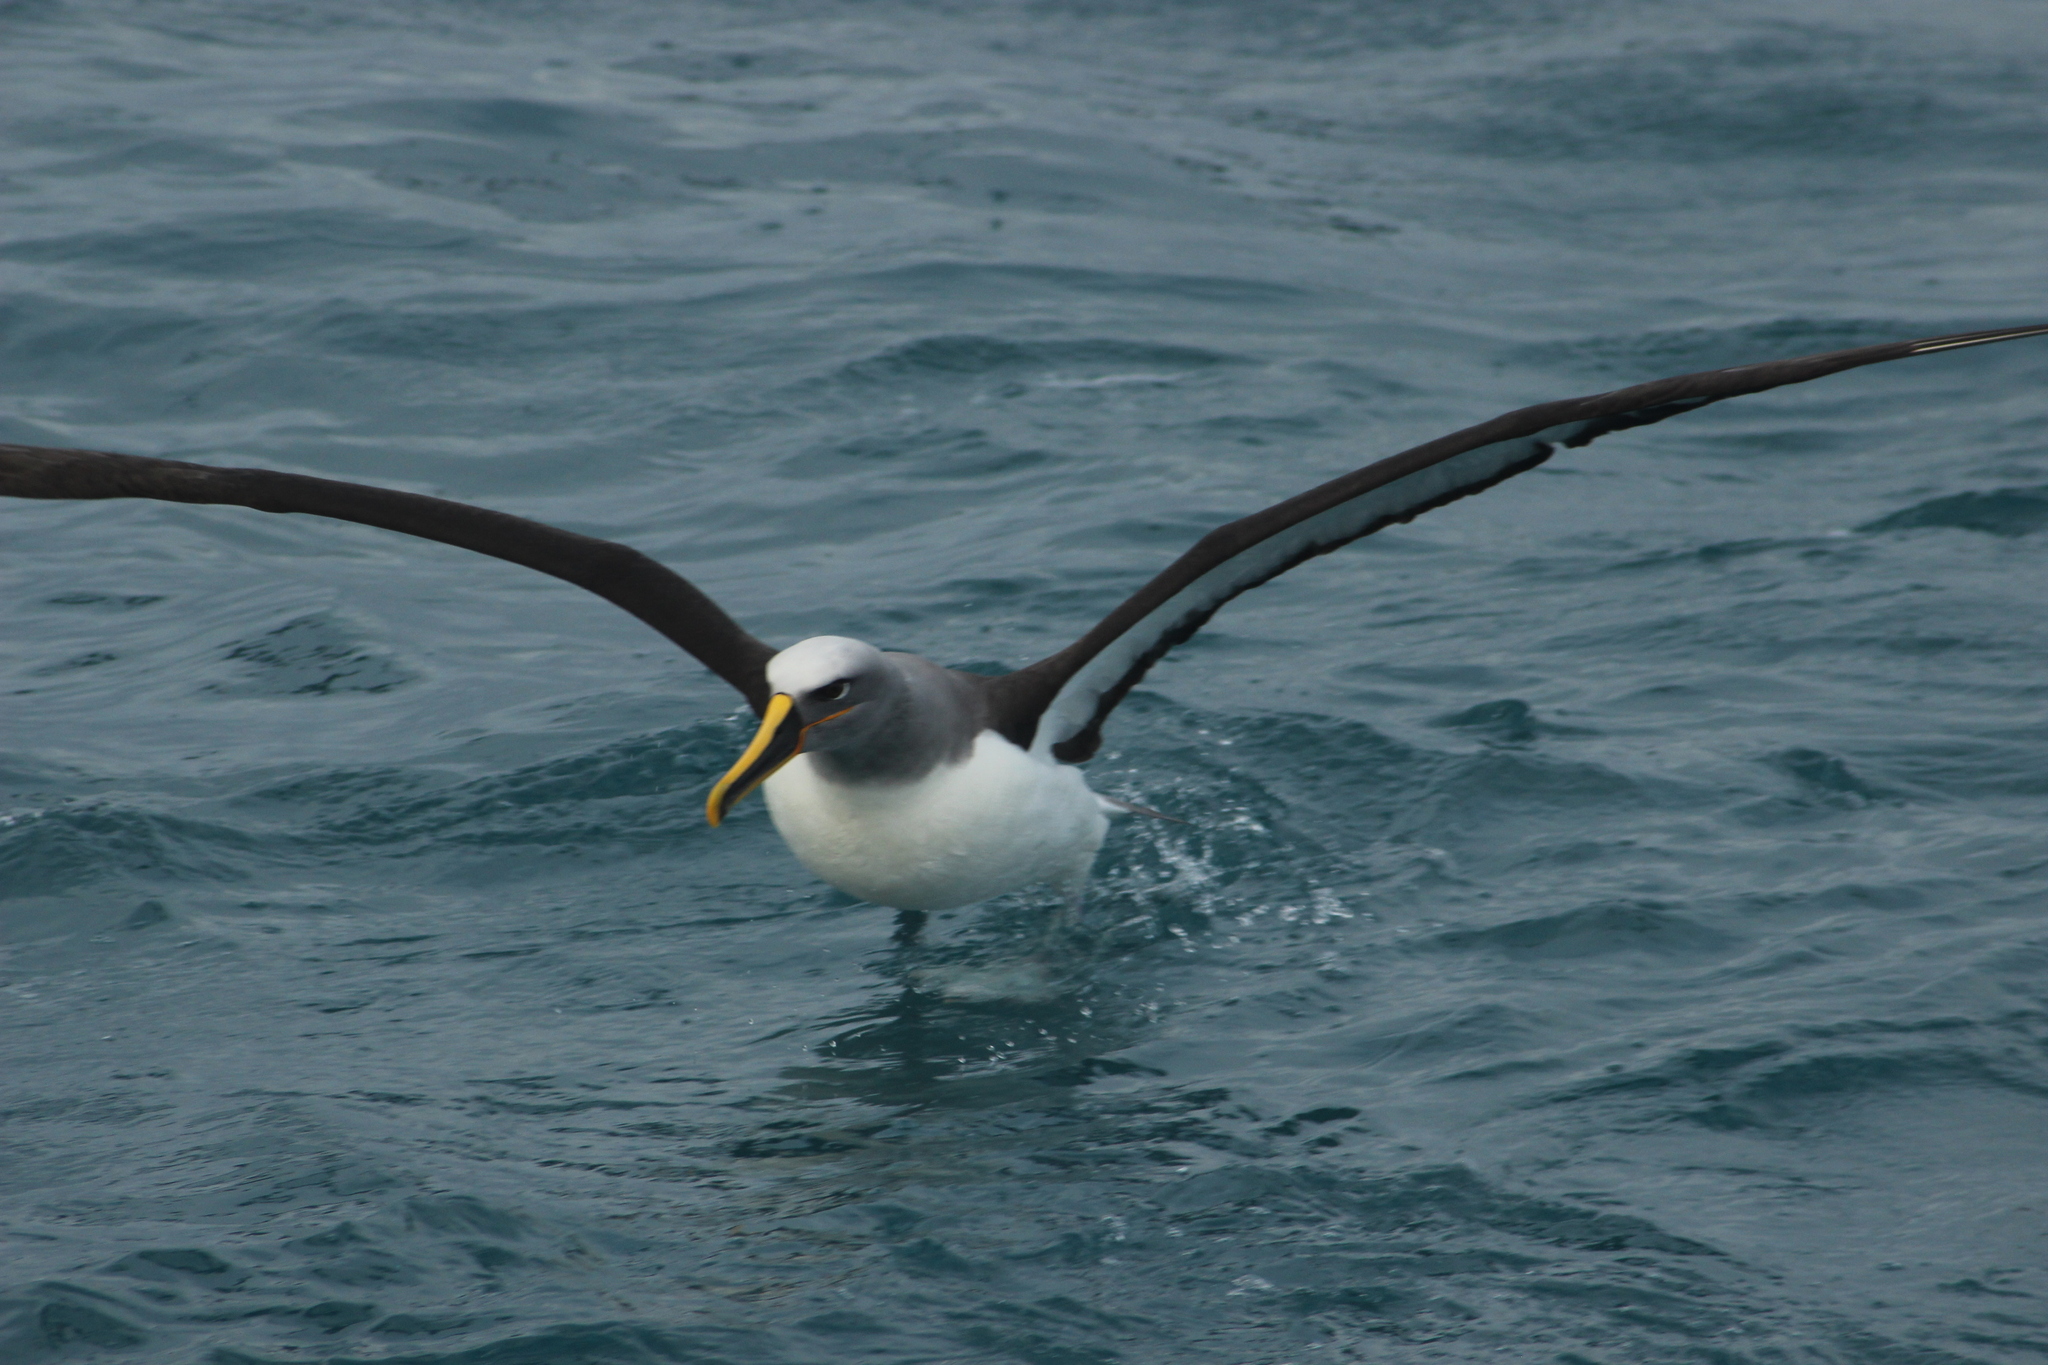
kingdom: Animalia
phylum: Chordata
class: Aves
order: Procellariiformes
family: Diomedeidae
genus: Thalassarche
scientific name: Thalassarche bulleri
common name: Buller's albatross
